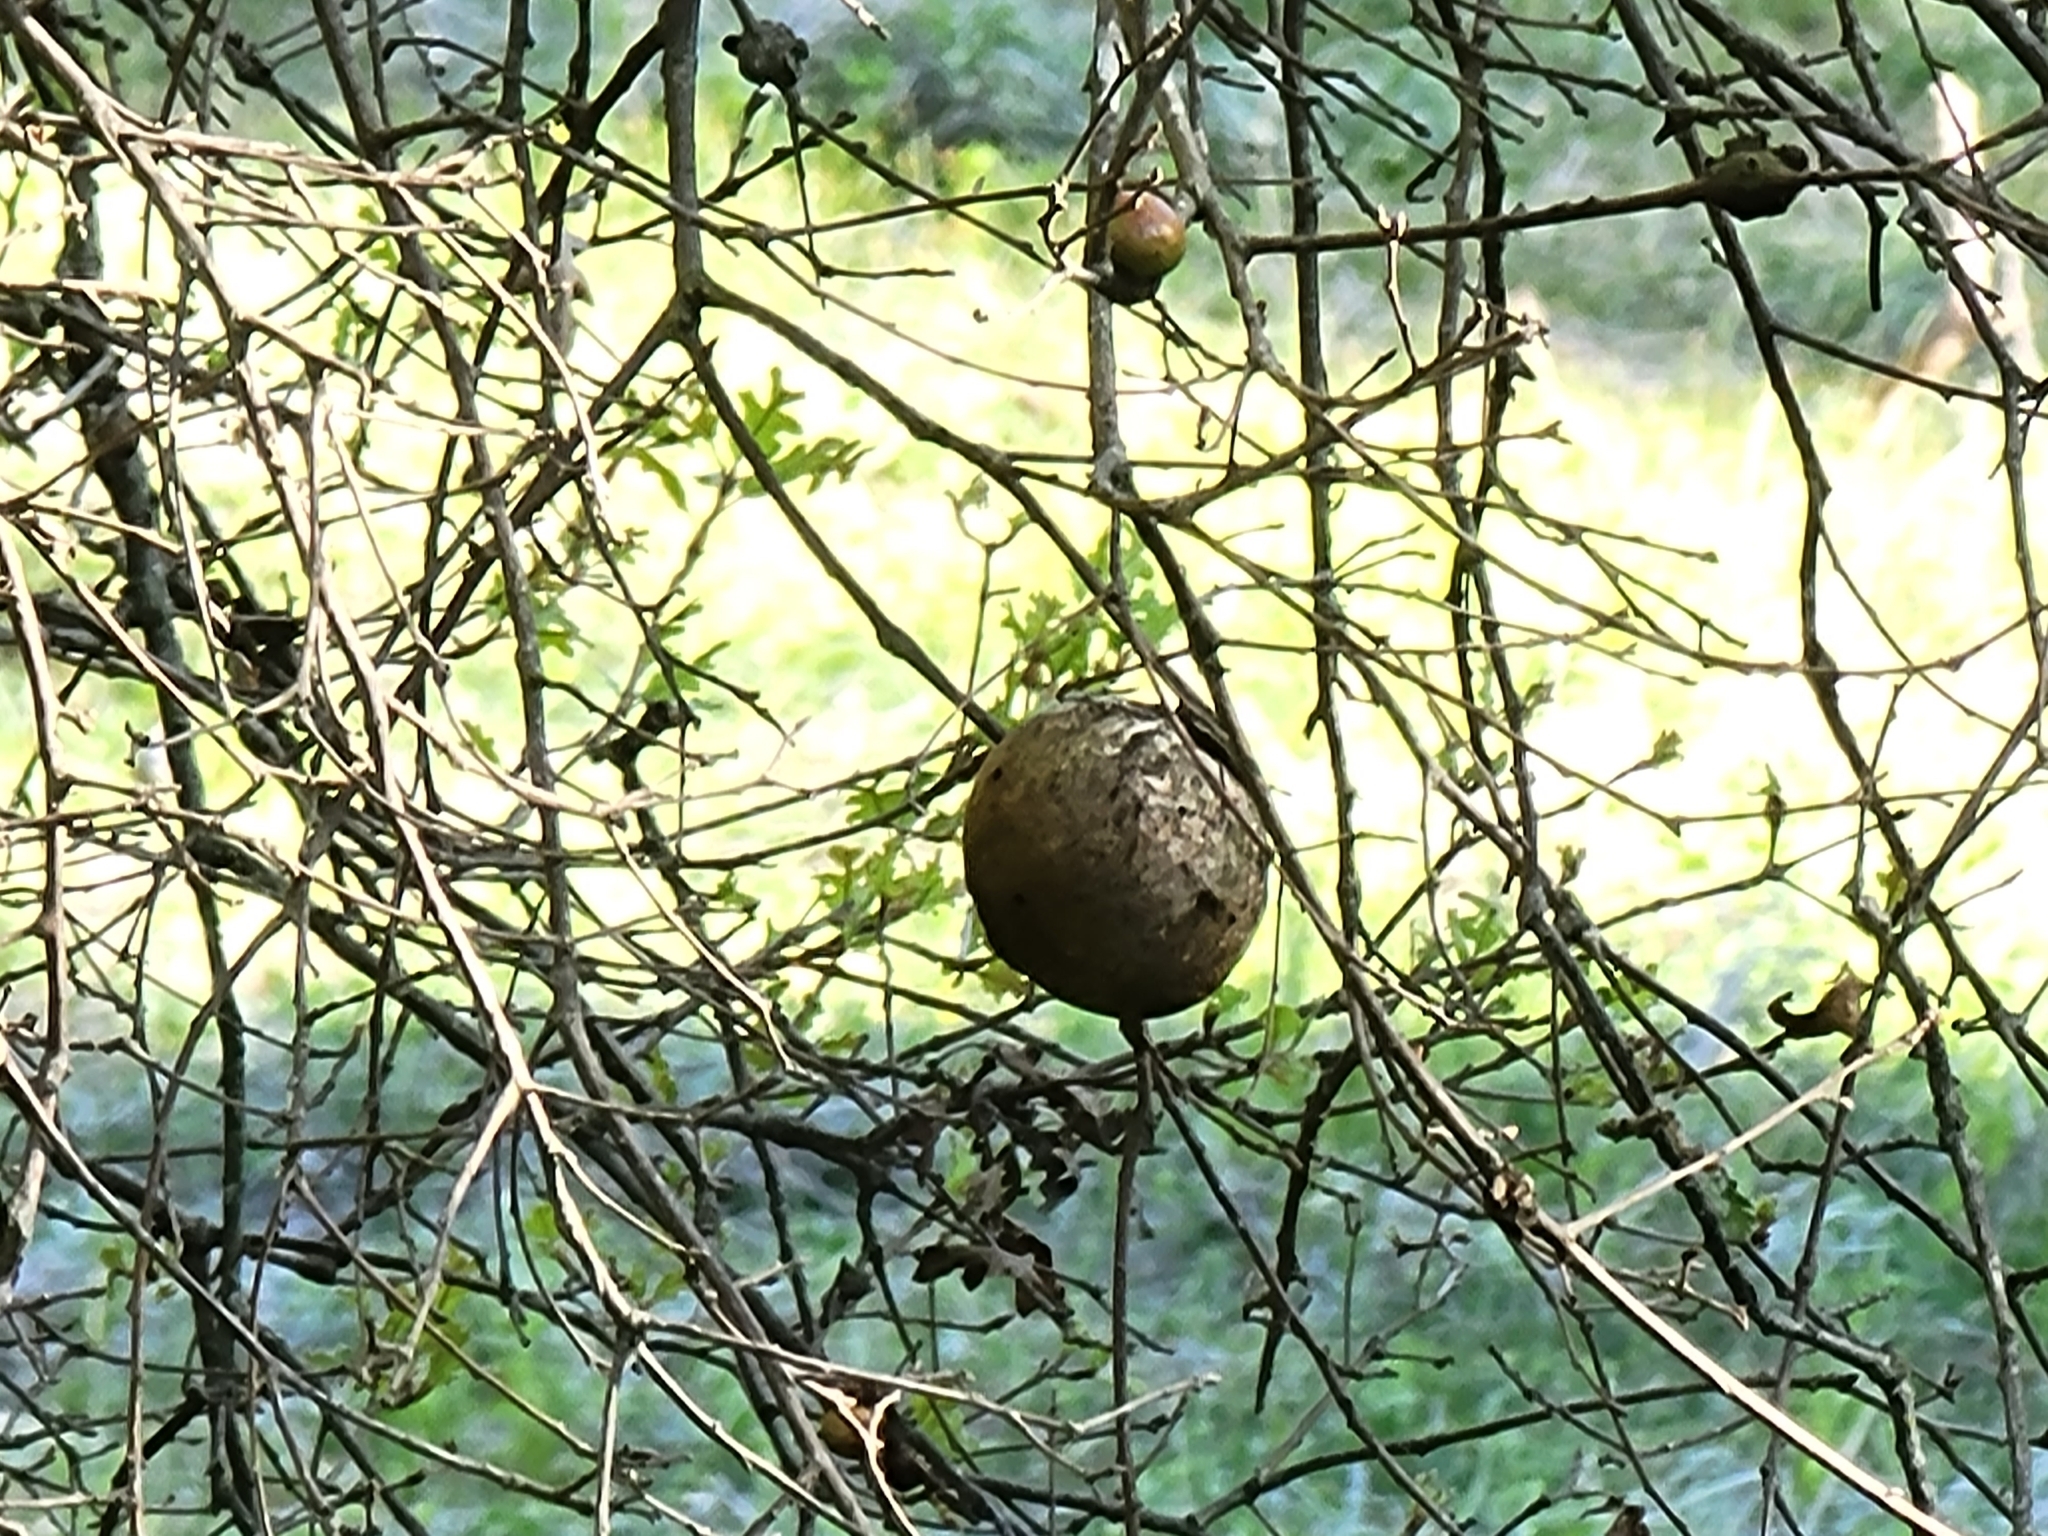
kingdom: Animalia
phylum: Arthropoda
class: Insecta
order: Hymenoptera
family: Cynipidae
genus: Andricus
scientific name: Andricus quercuscalifornicus
